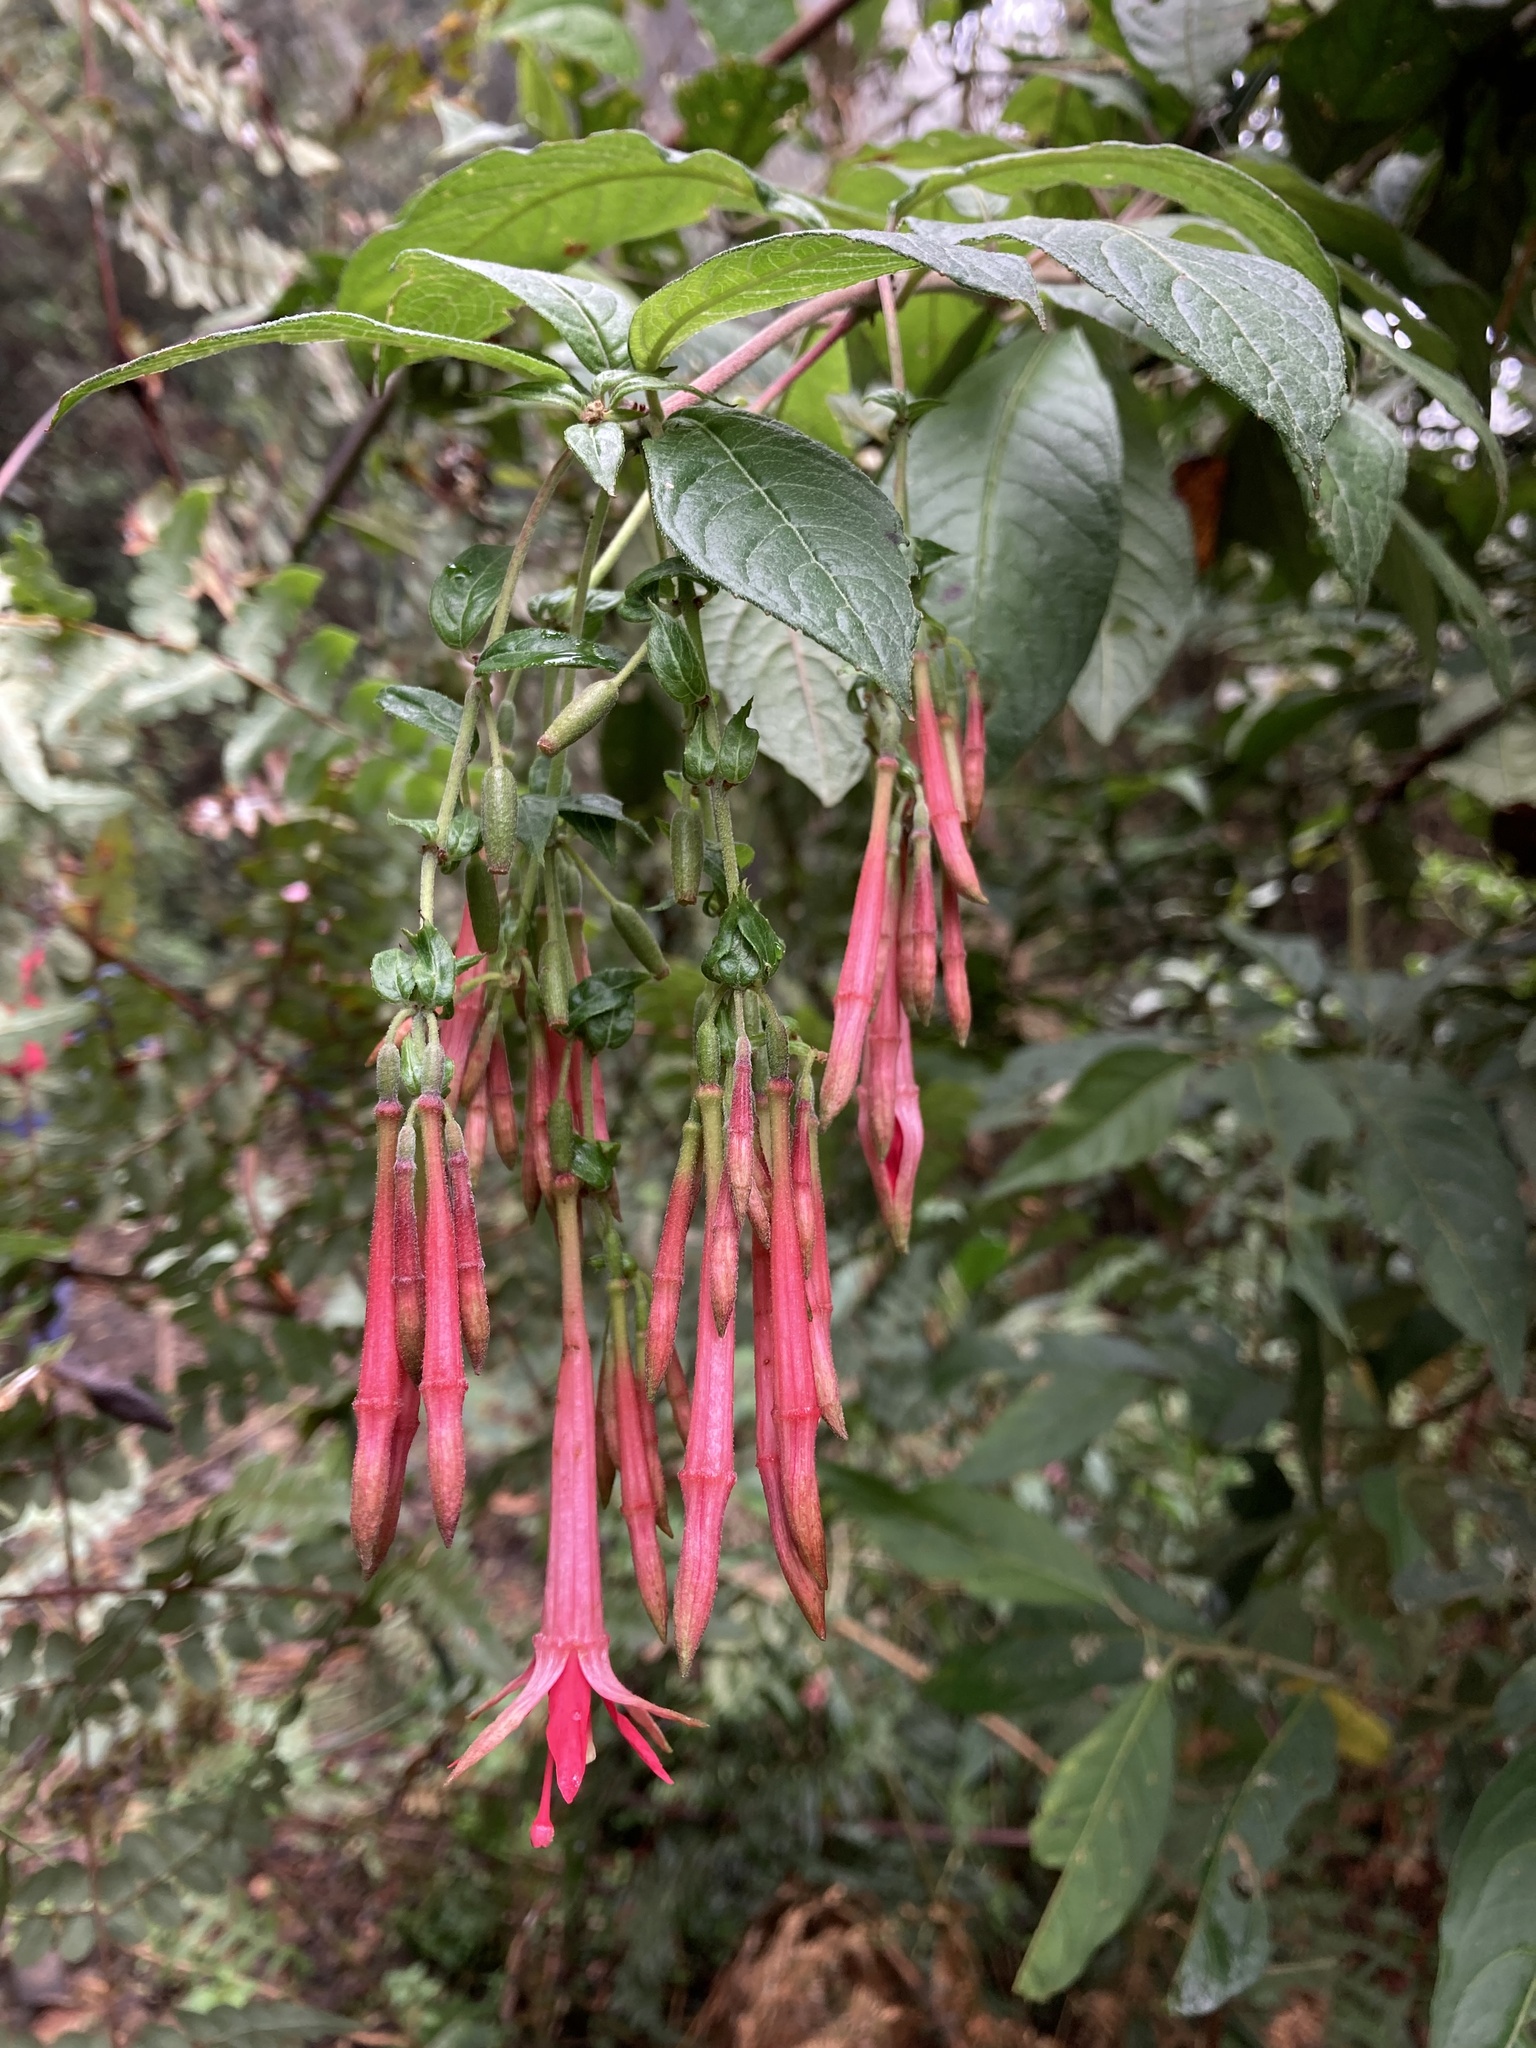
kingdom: Plantae
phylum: Tracheophyta
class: Magnoliopsida
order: Myrtales
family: Onagraceae
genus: Fuchsia
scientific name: Fuchsia hirtella
